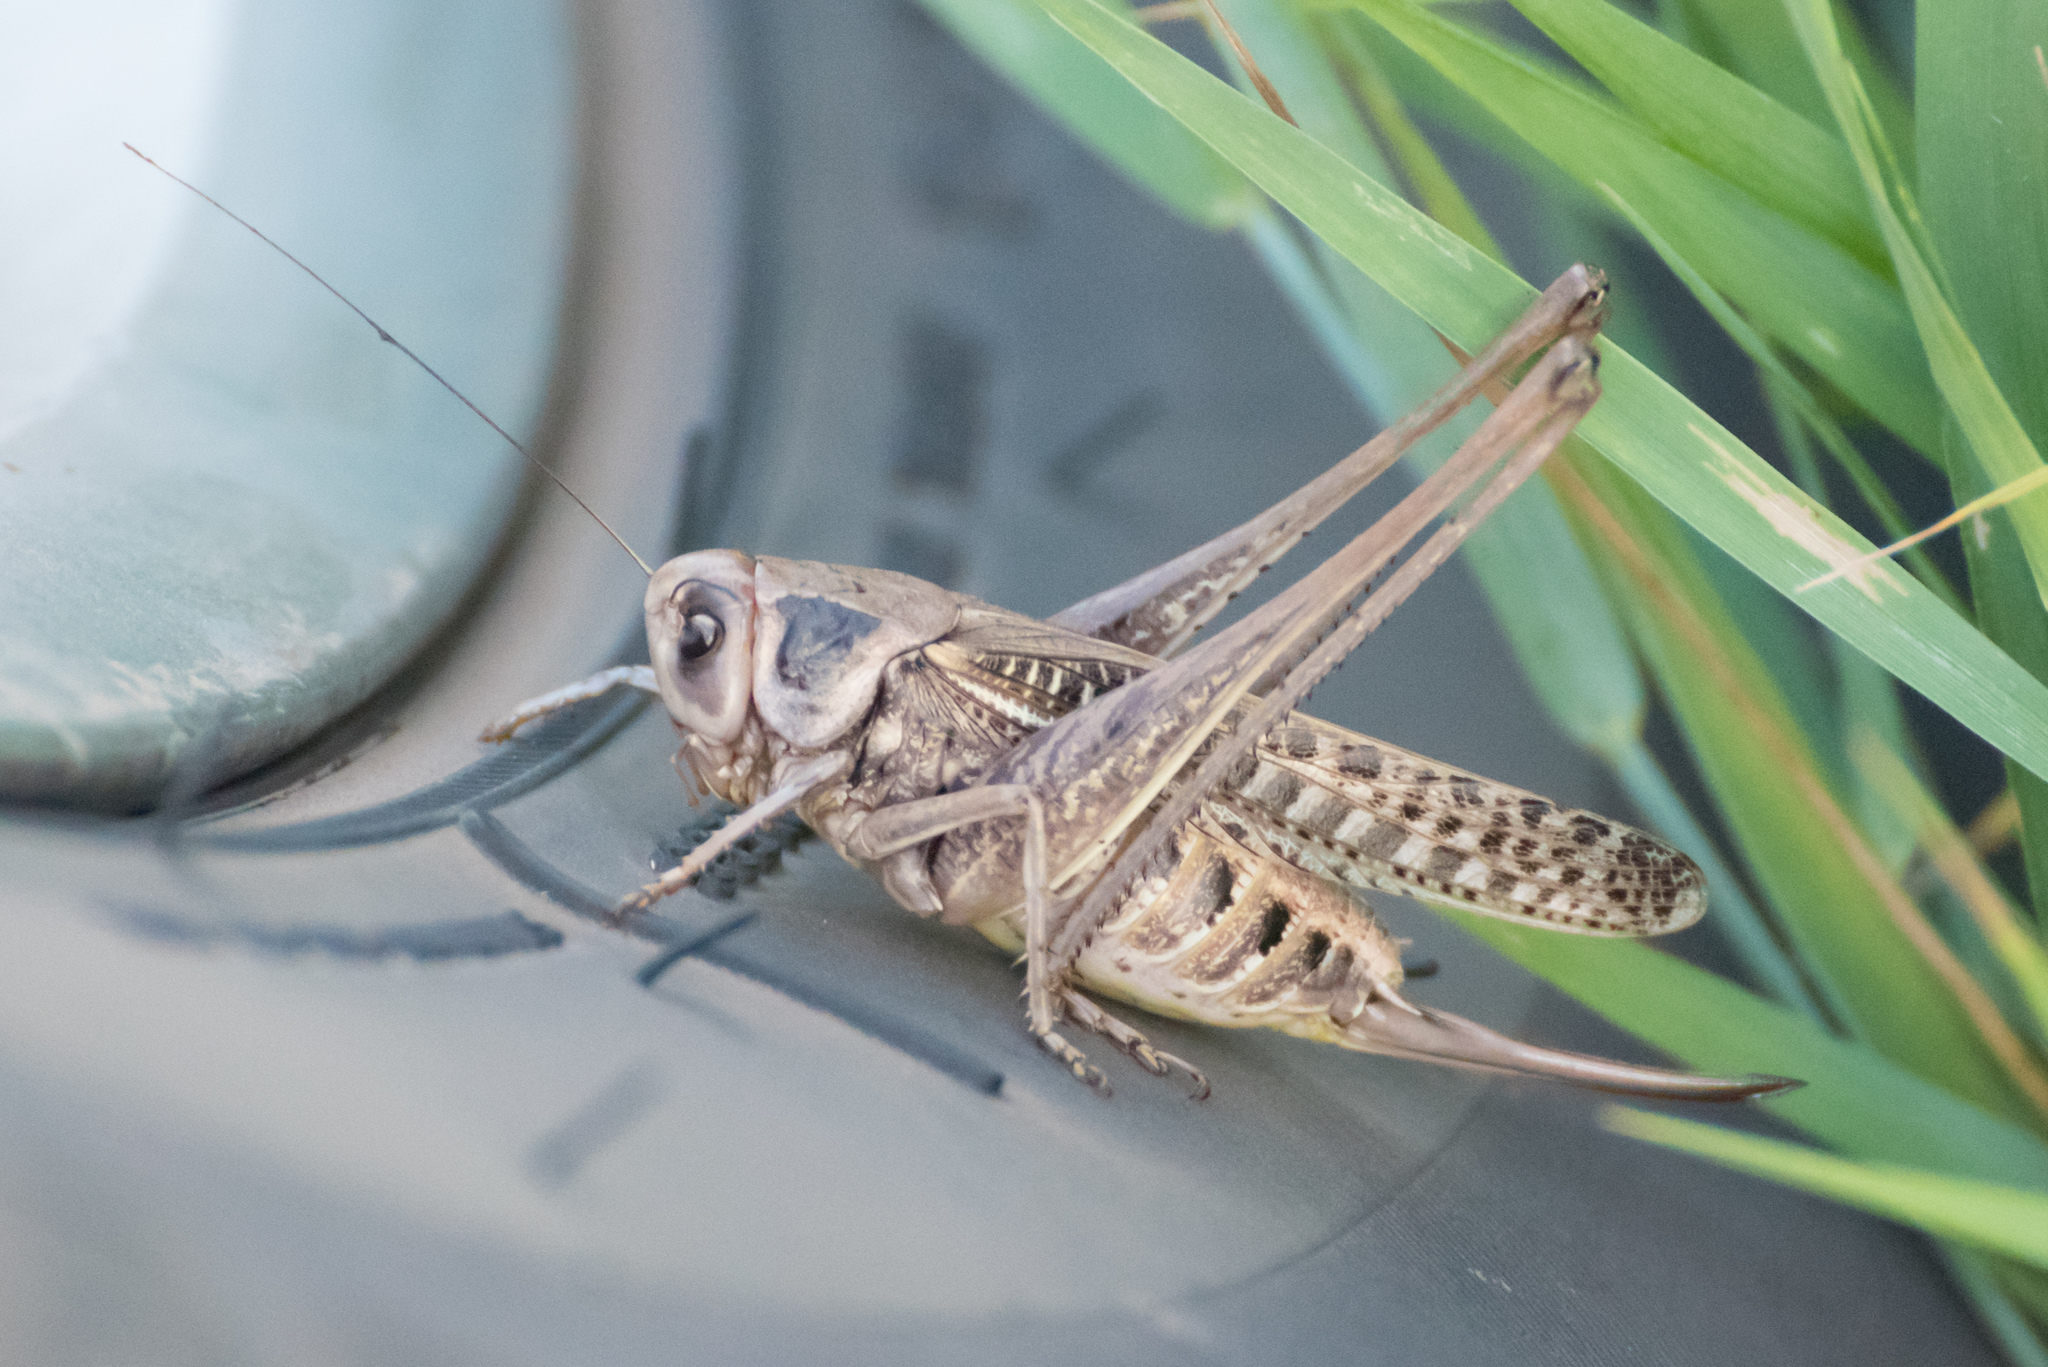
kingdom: Animalia
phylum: Arthropoda
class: Insecta
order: Orthoptera
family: Tettigoniidae
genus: Decticus
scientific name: Decticus verrucivorus
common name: Wart-biter
